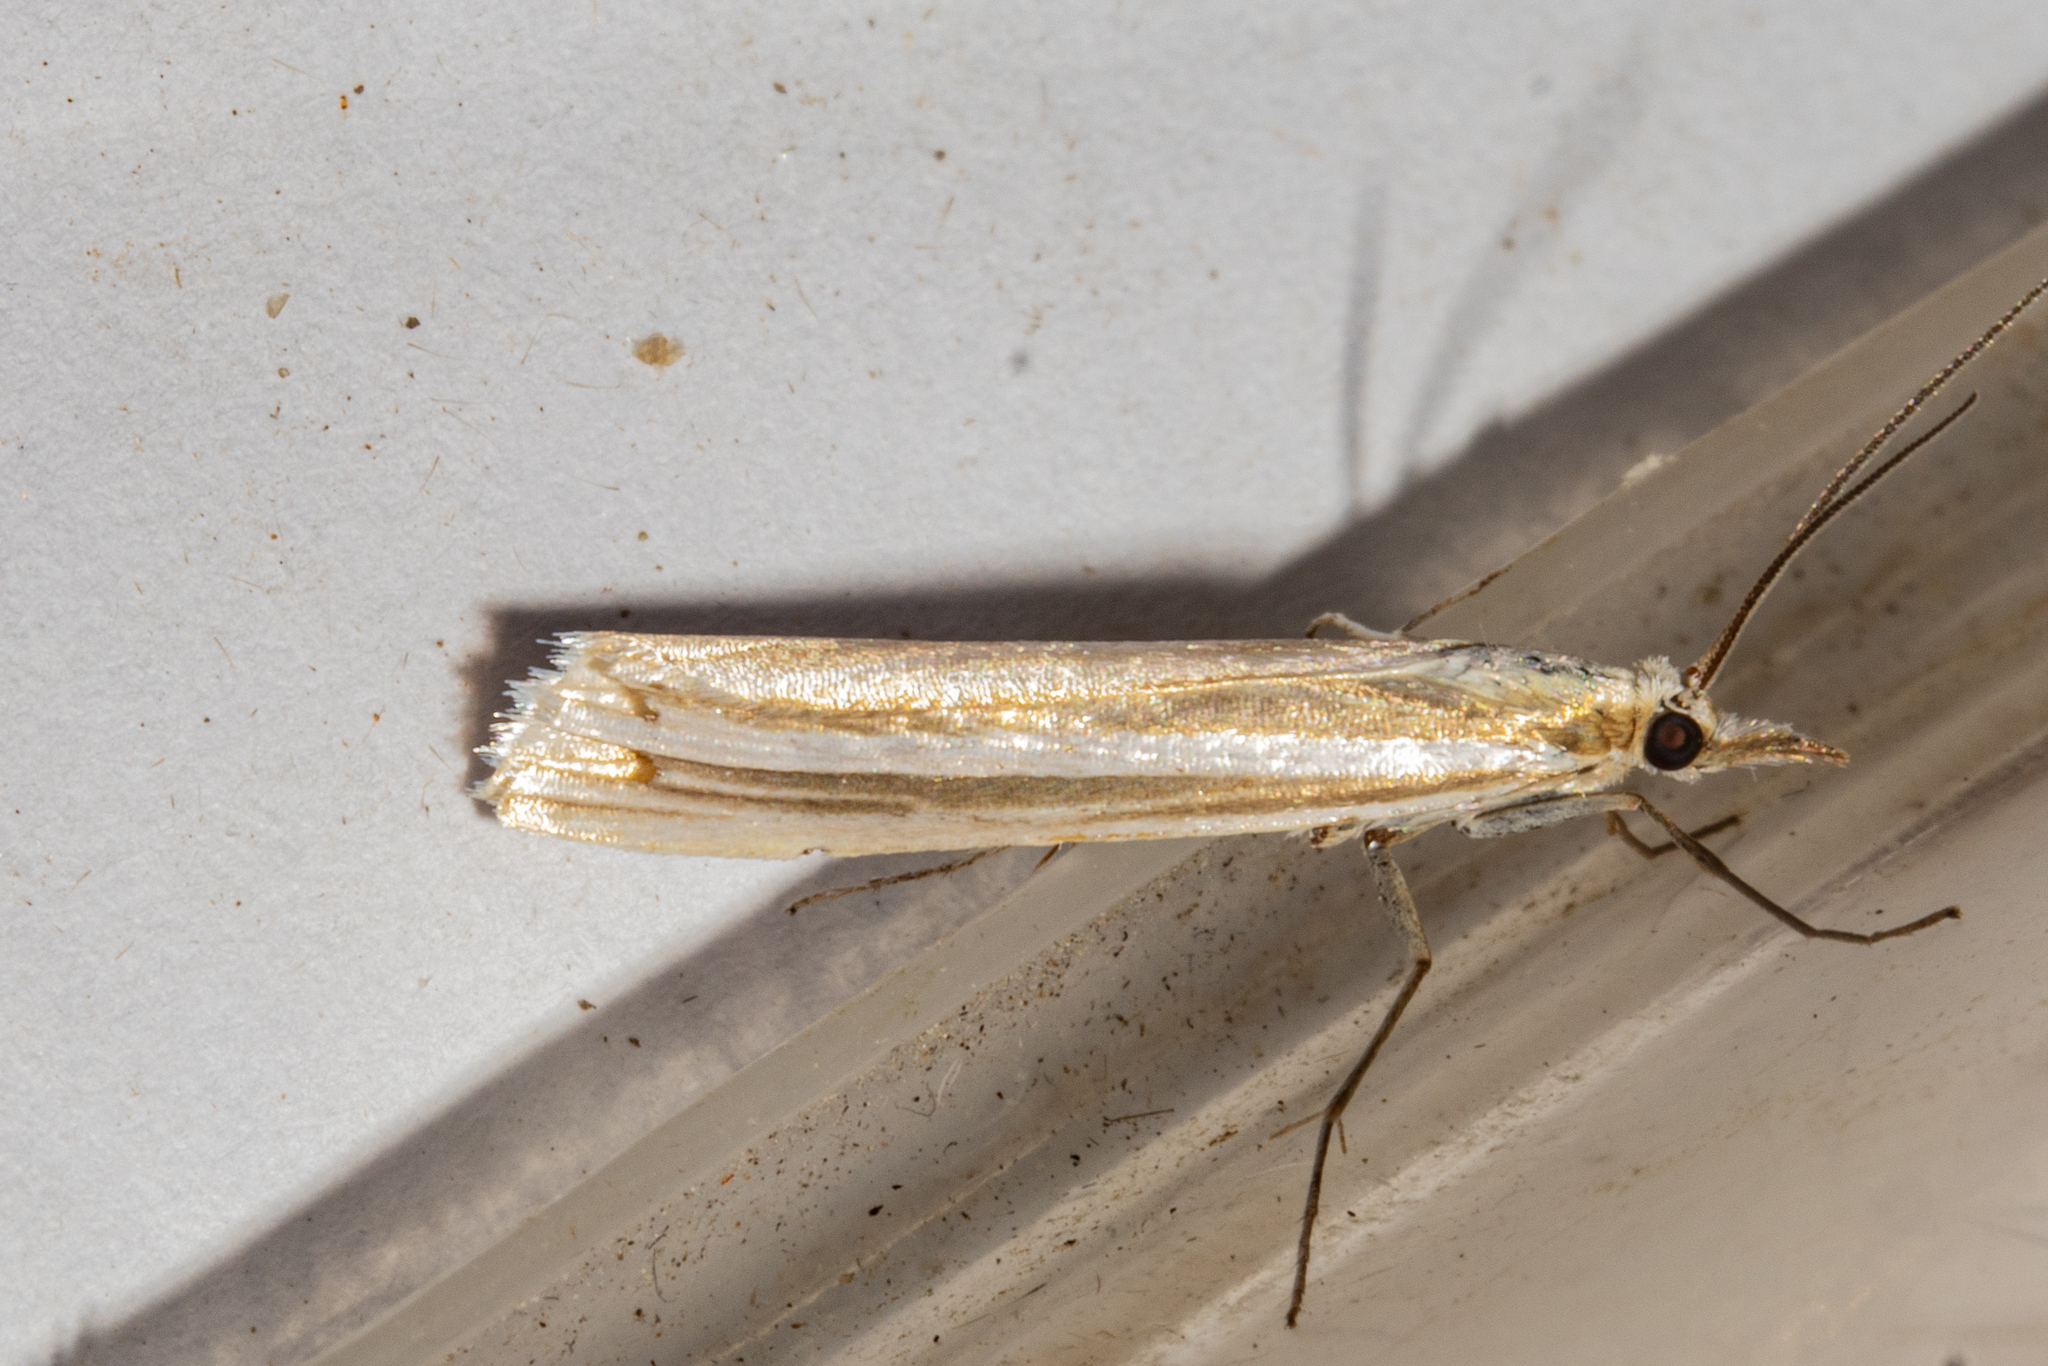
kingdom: Animalia
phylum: Arthropoda
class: Insecta
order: Lepidoptera
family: Crambidae
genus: Orocrambus
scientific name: Orocrambus lewisi
